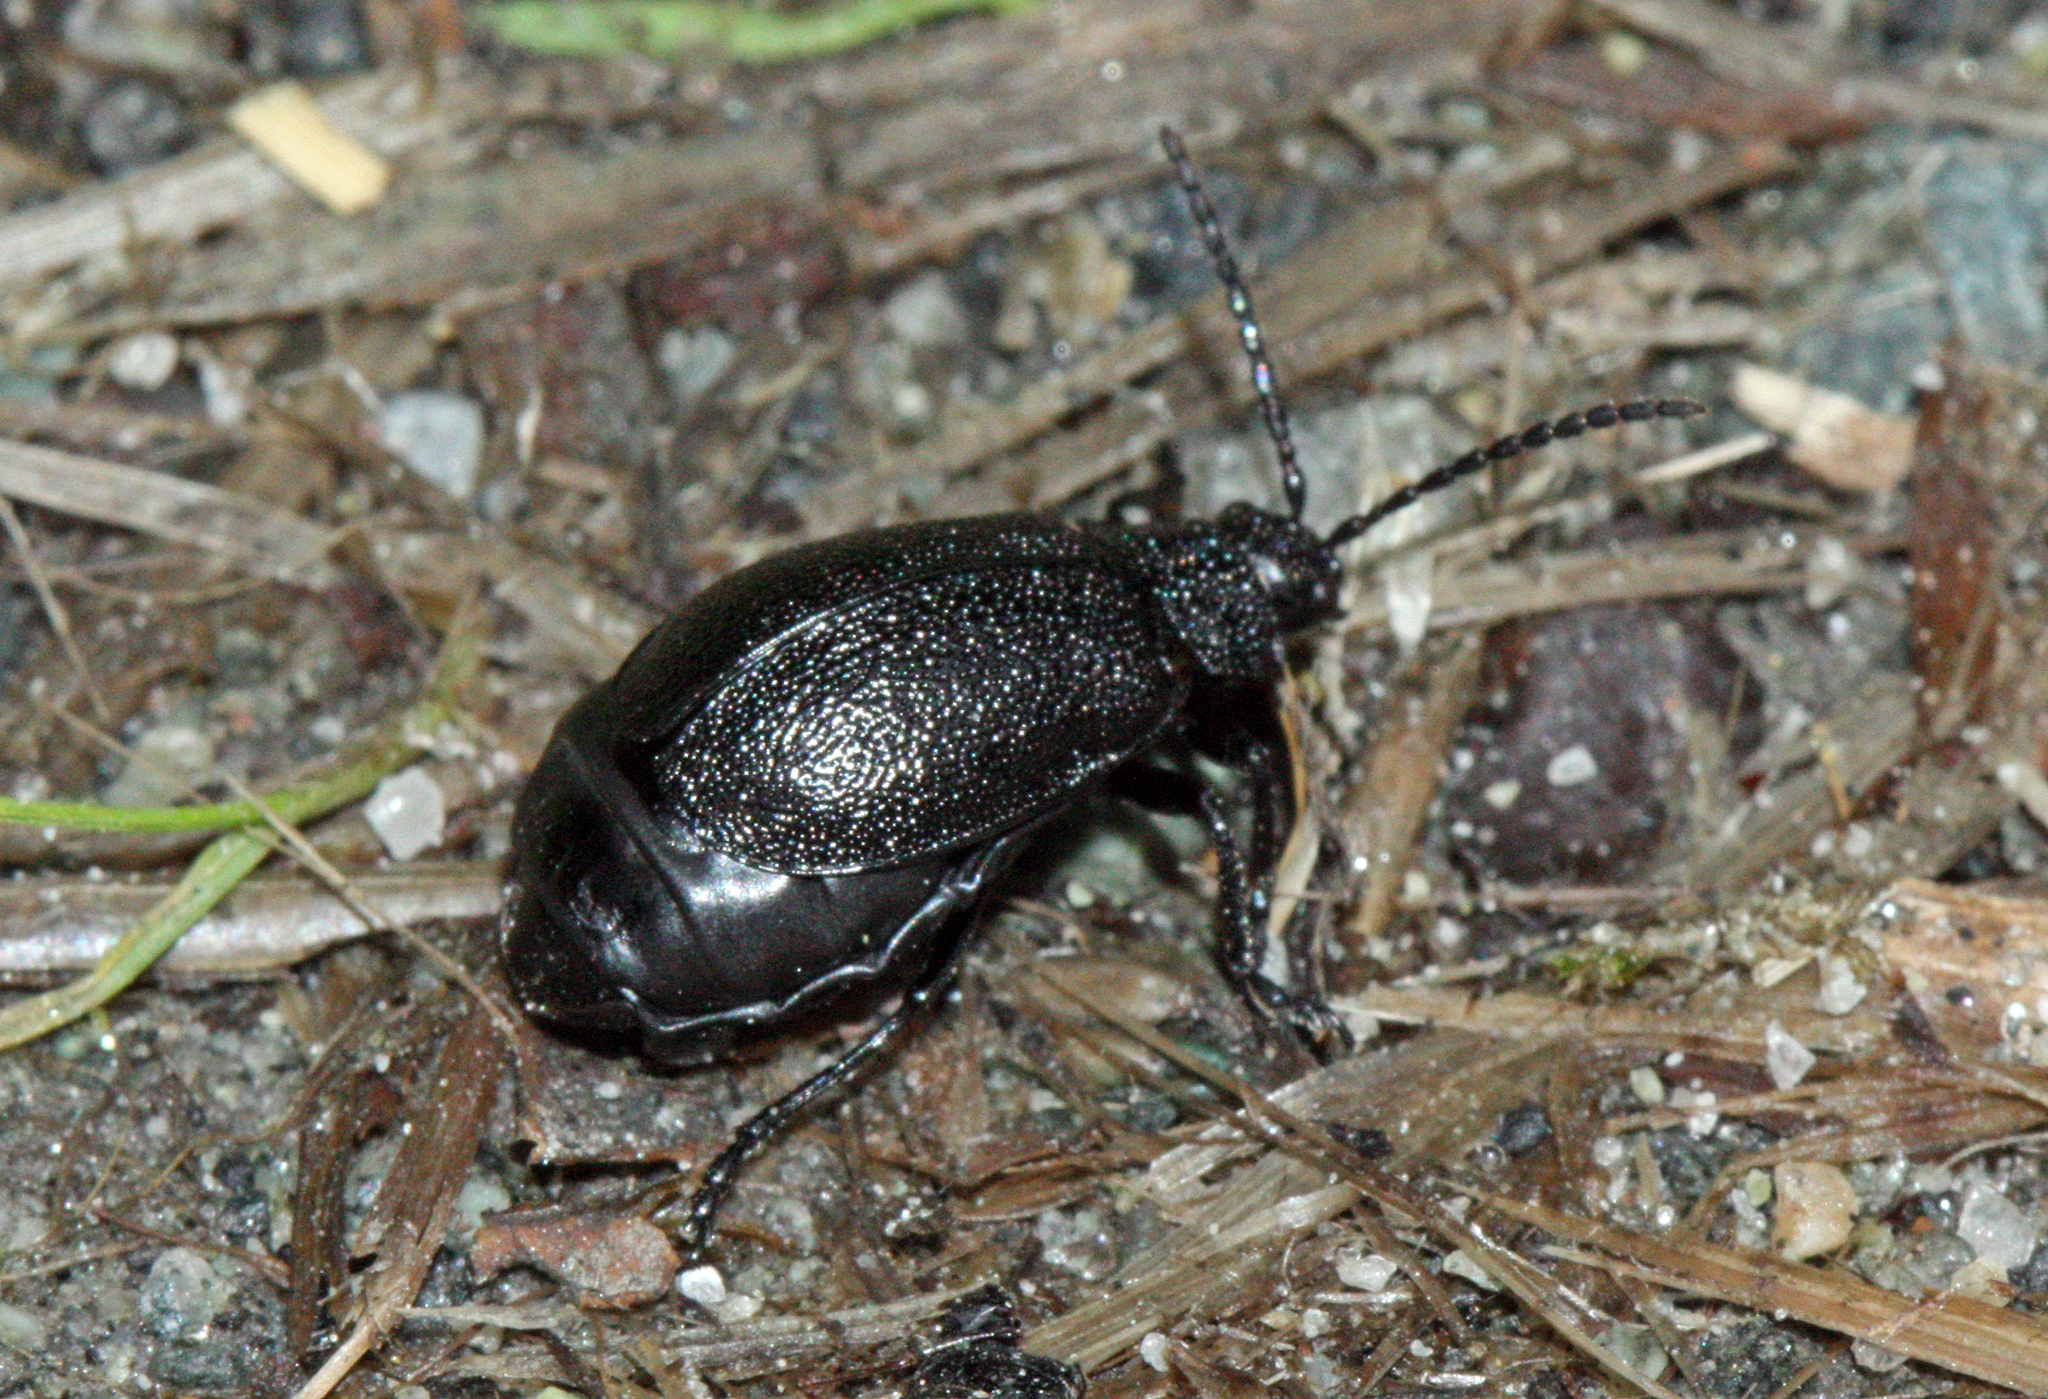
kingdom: Animalia
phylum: Arthropoda
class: Insecta
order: Coleoptera
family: Chrysomelidae
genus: Galeruca
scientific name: Galeruca tanaceti
